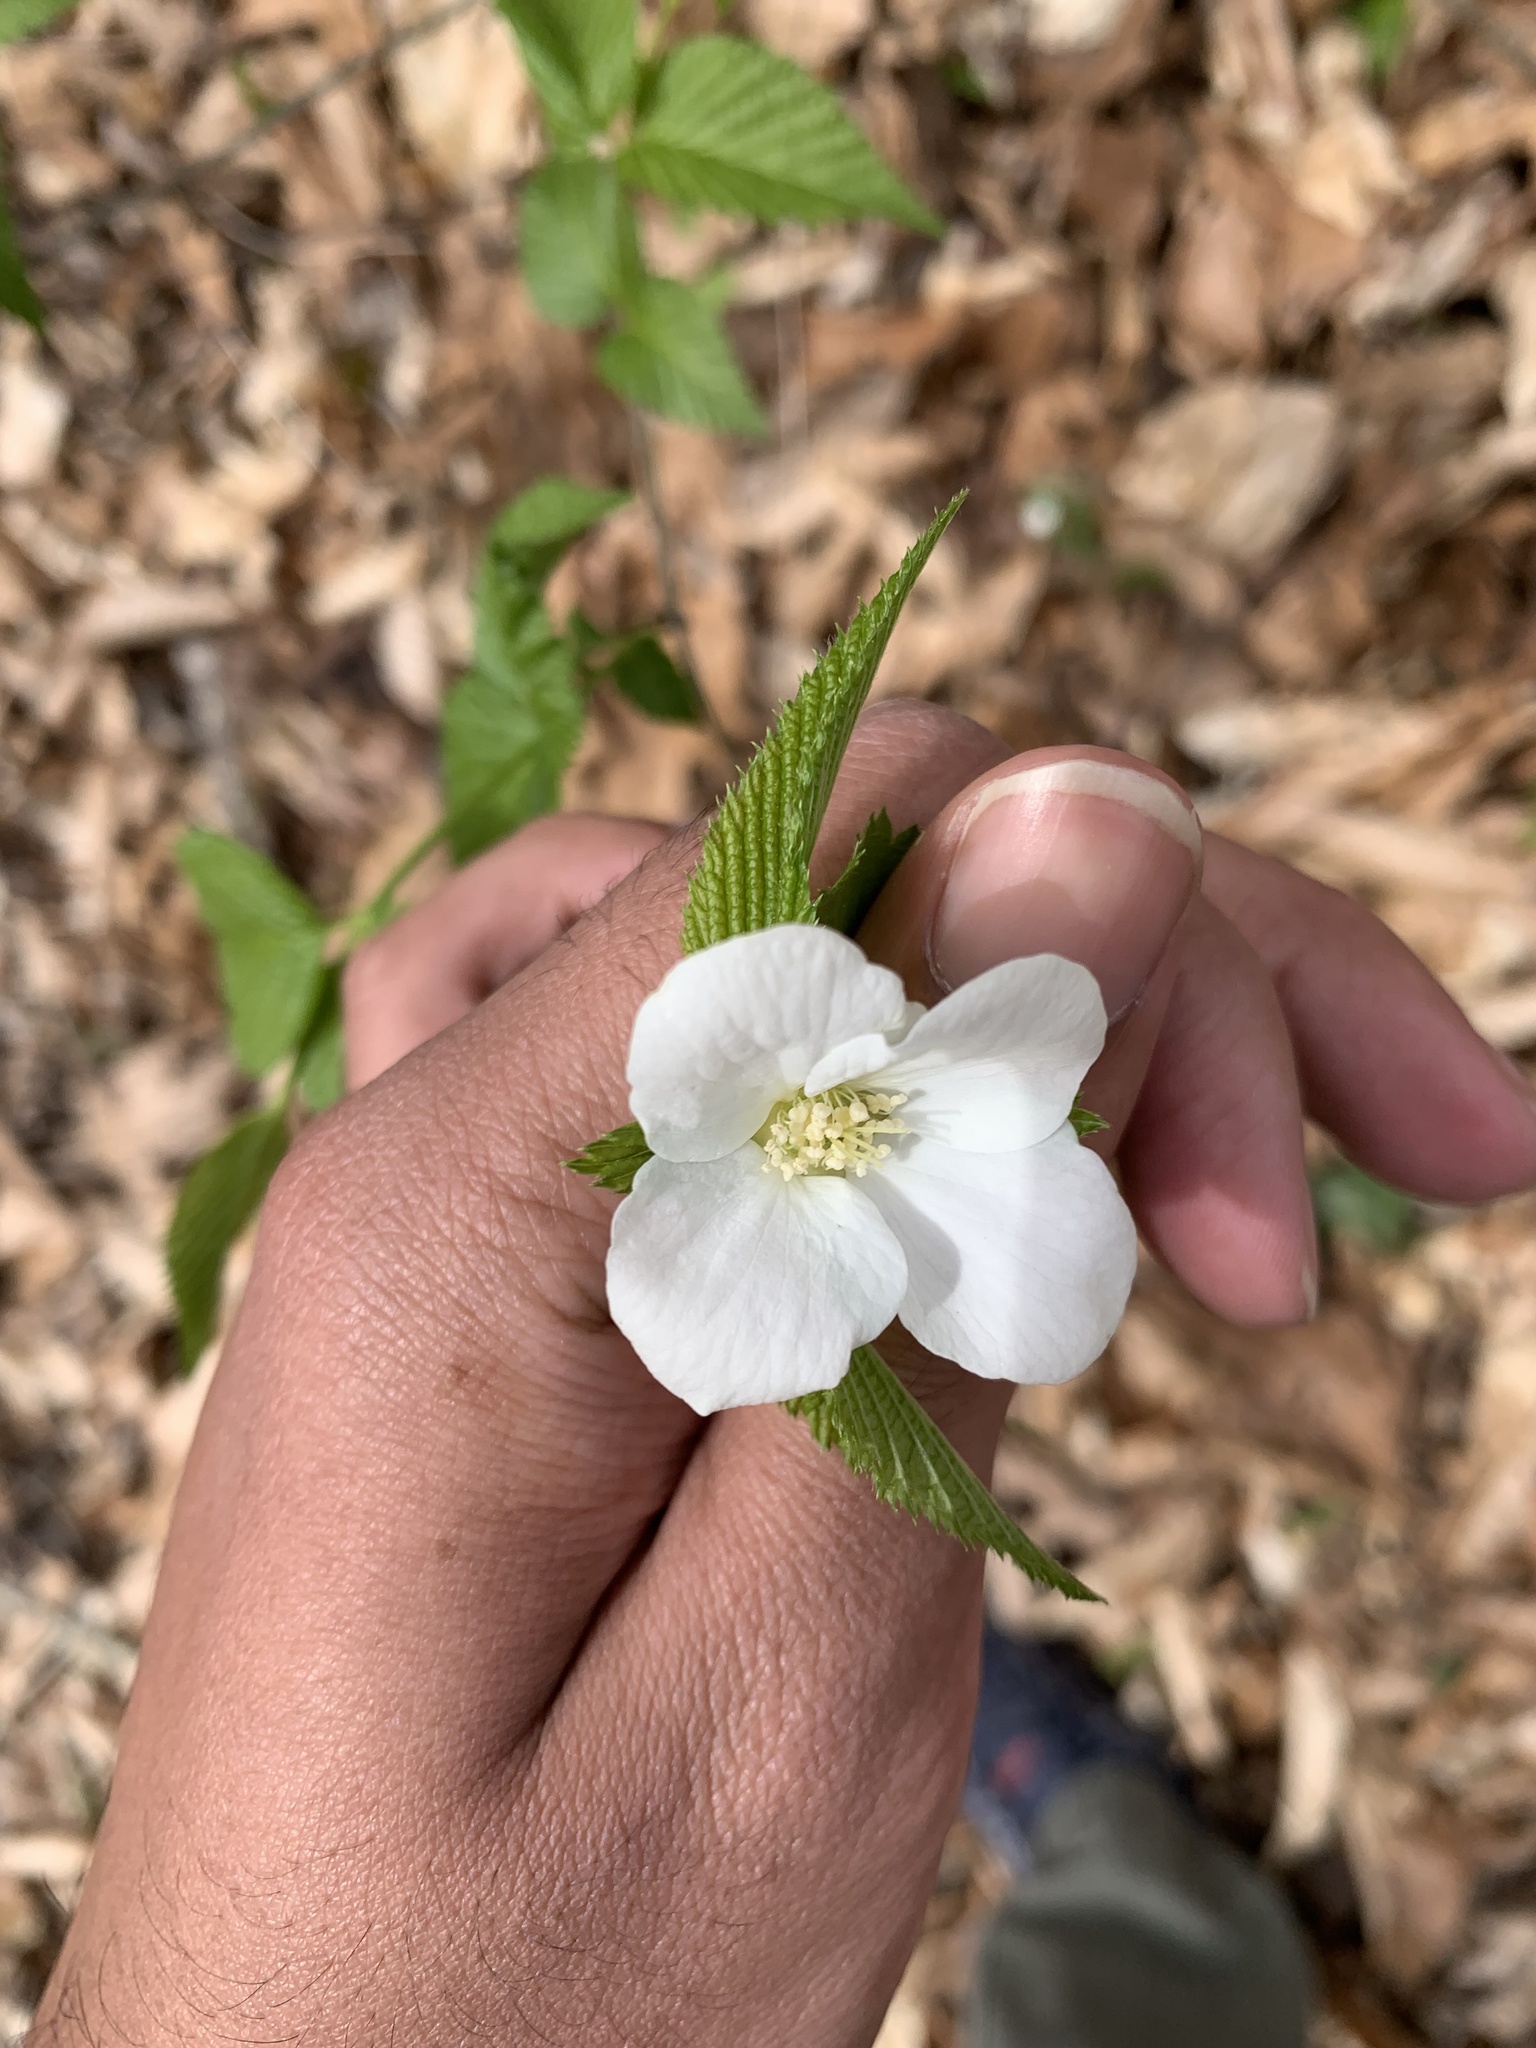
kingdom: Plantae
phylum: Tracheophyta
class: Magnoliopsida
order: Rosales
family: Rosaceae
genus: Rhodotypos
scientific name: Rhodotypos scandens
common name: Jetbead
